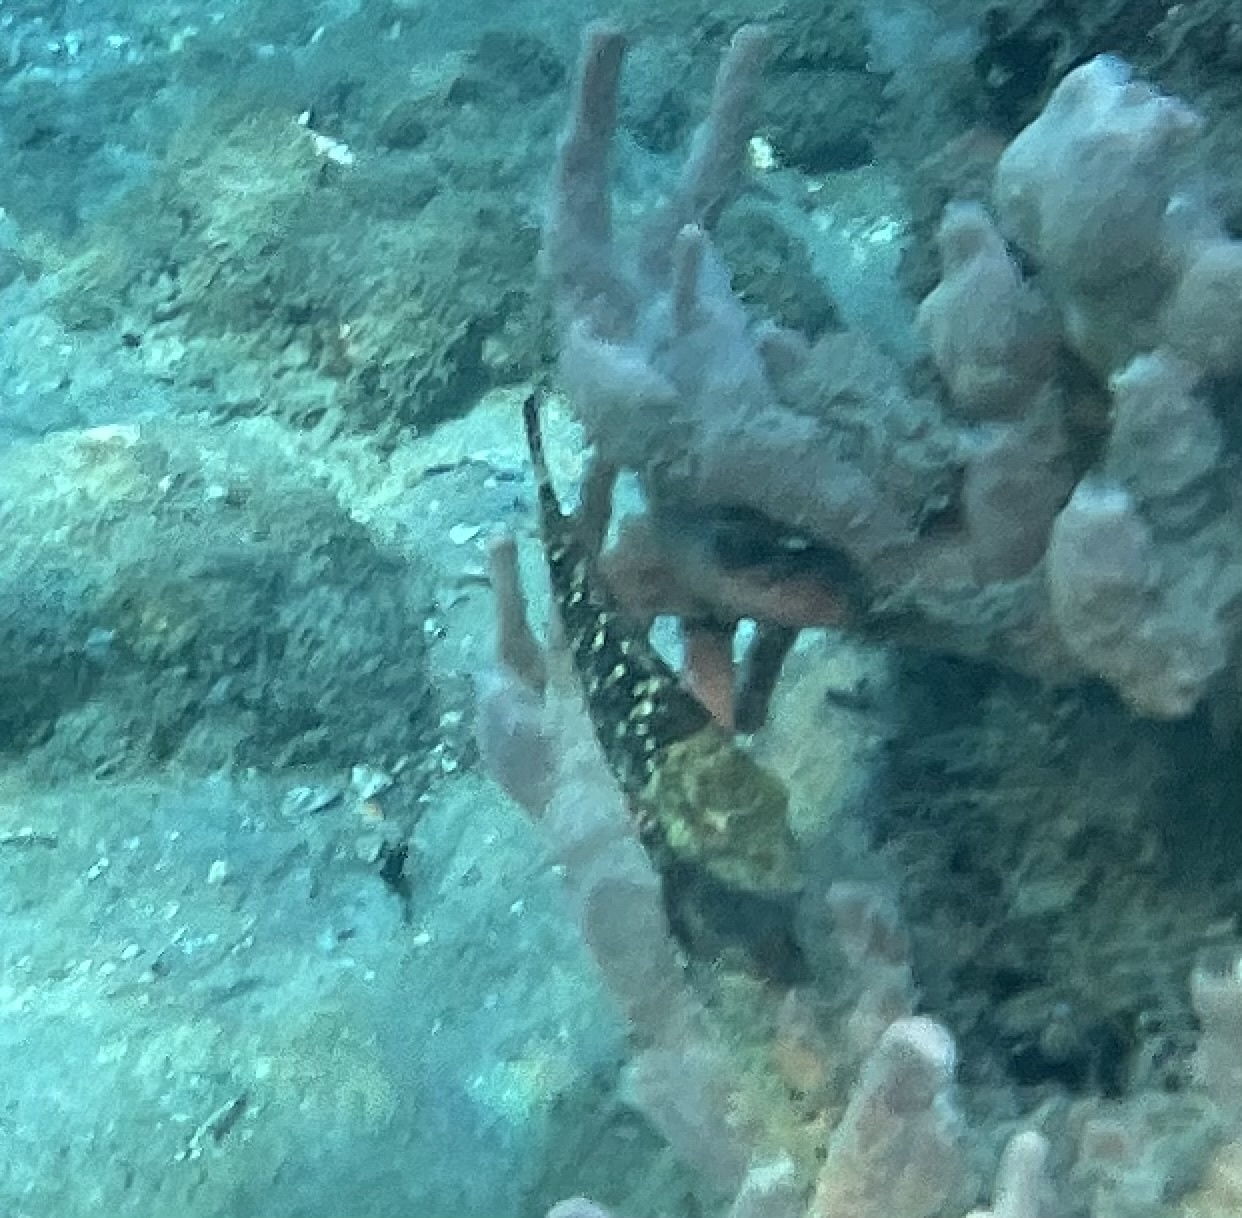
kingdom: Animalia
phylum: Chordata
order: Perciformes
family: Scaridae
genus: Sparisoma
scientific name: Sparisoma viride
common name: Stoplight parrotfish
